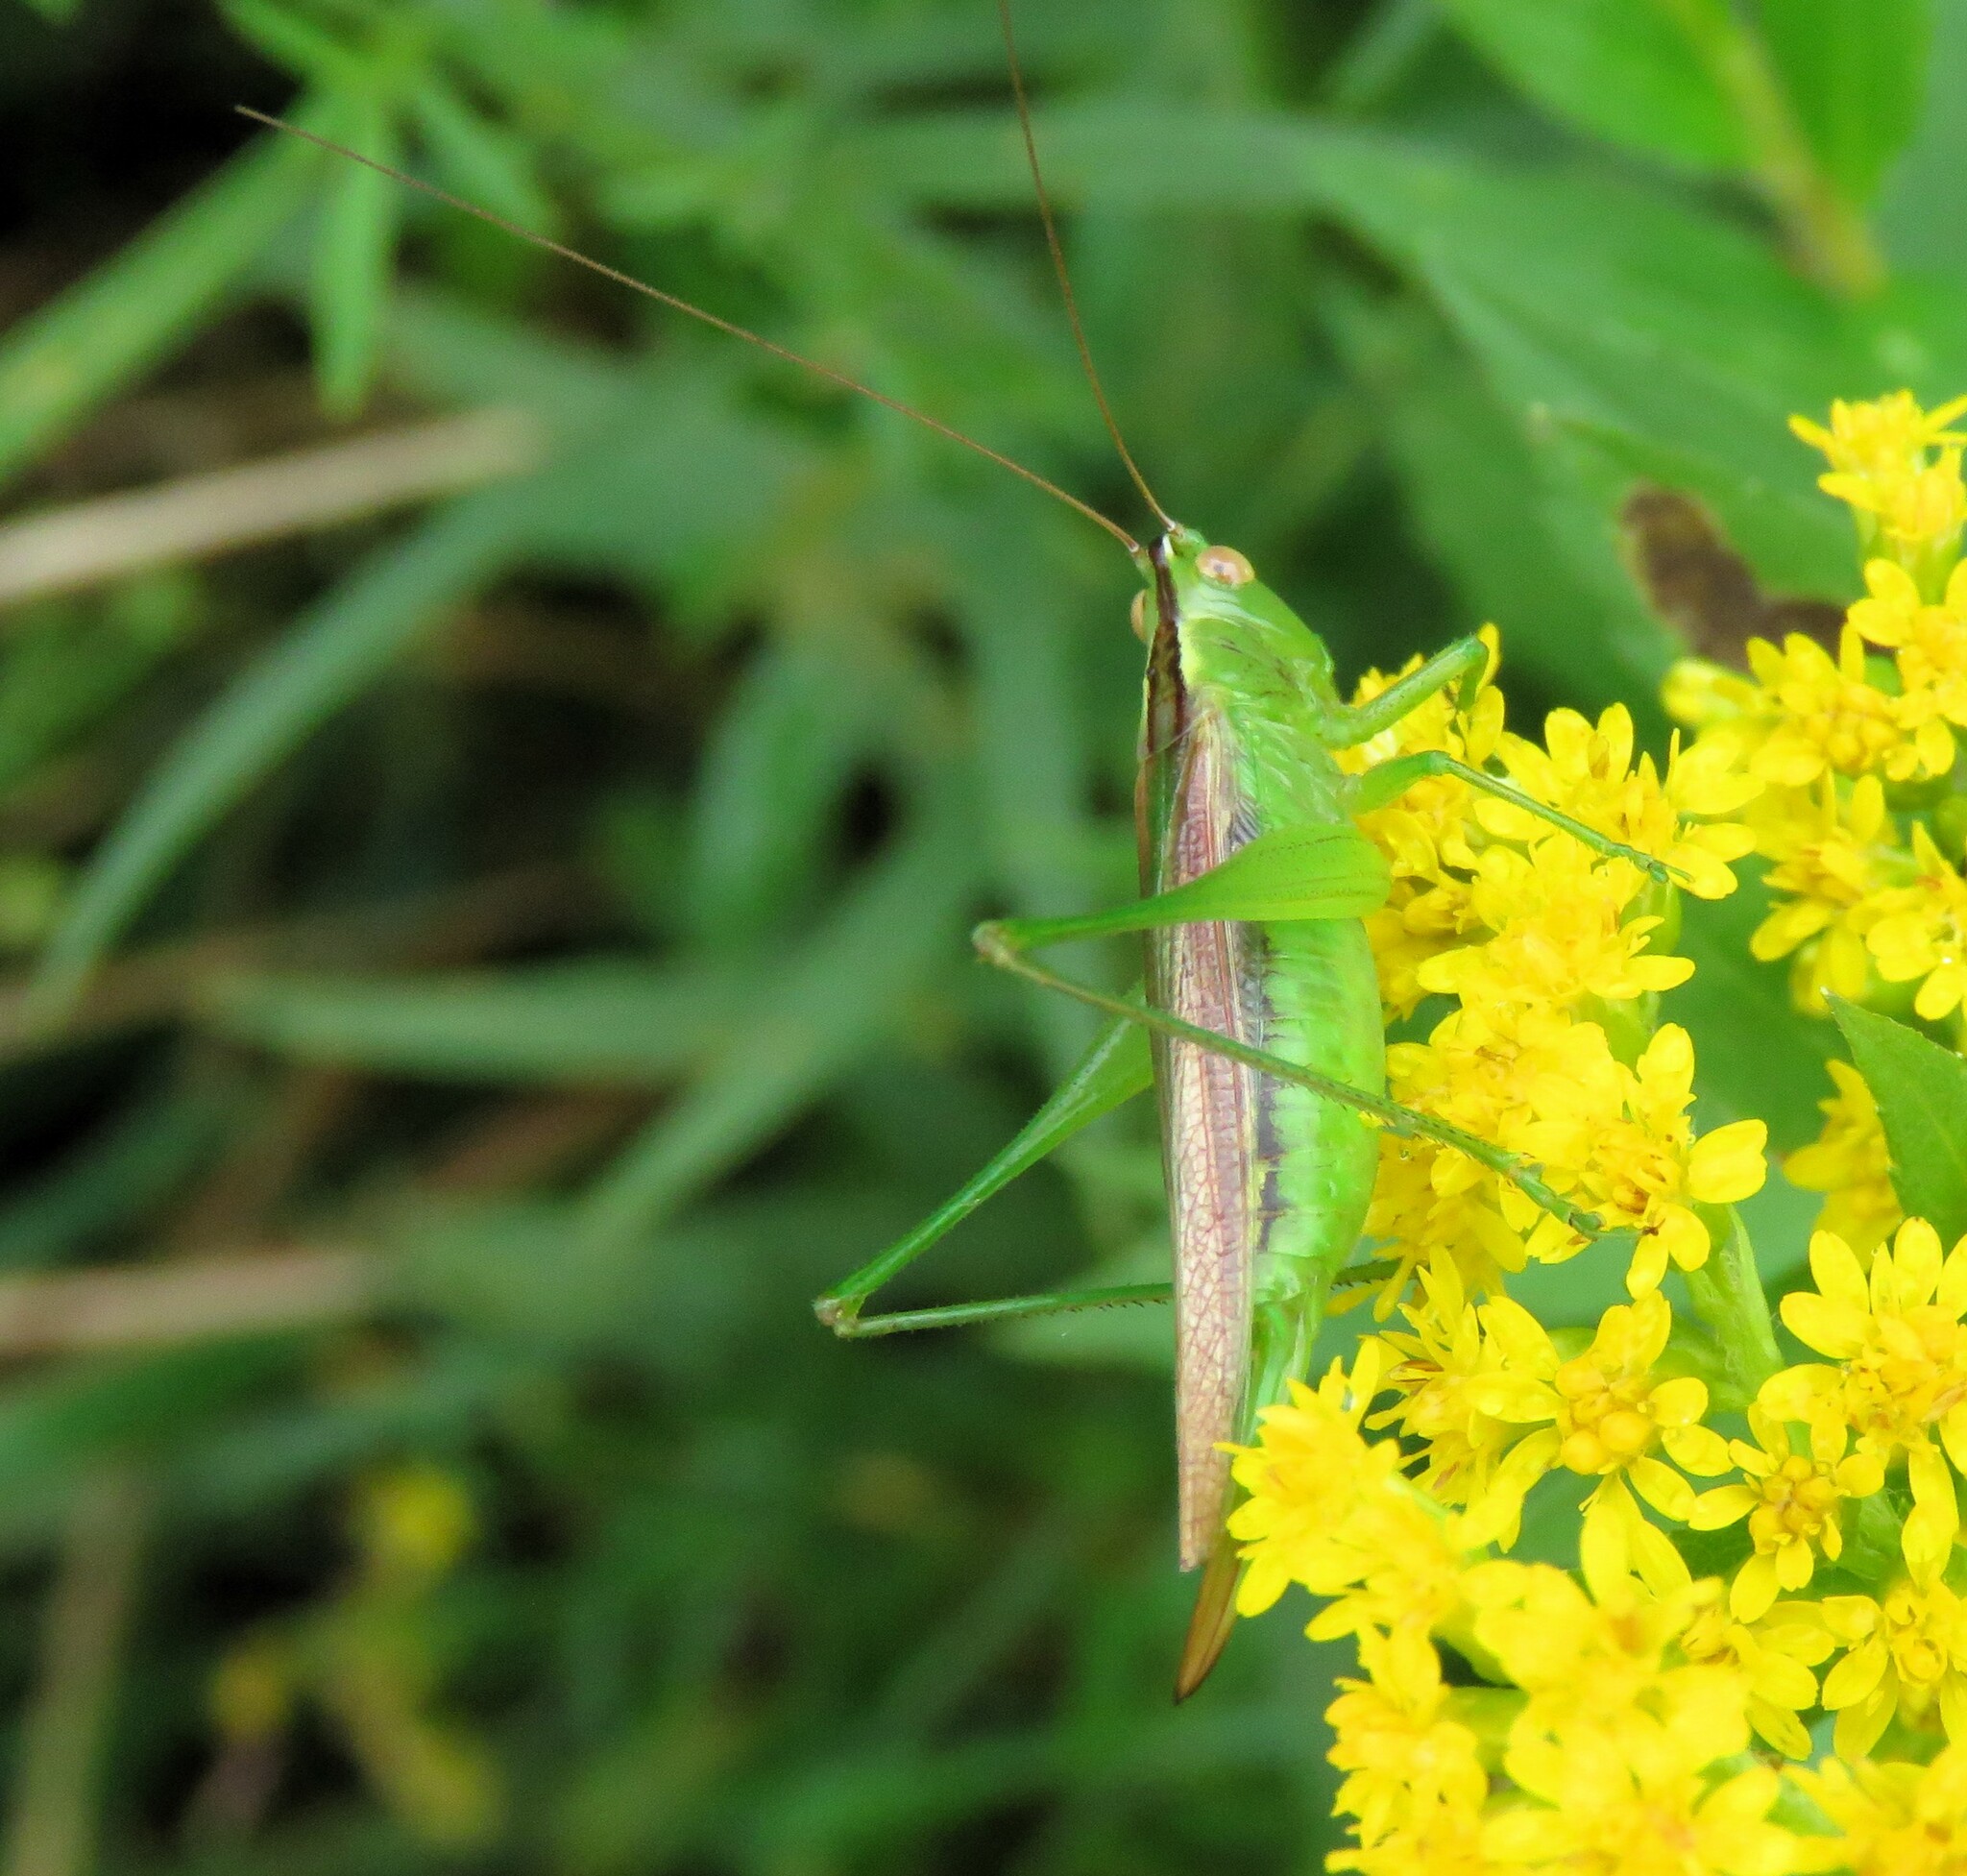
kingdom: Animalia
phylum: Arthropoda
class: Insecta
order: Orthoptera
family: Tettigoniidae
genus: Conocephalus
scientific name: Conocephalus fasciatus
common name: Slender meadow katydid
